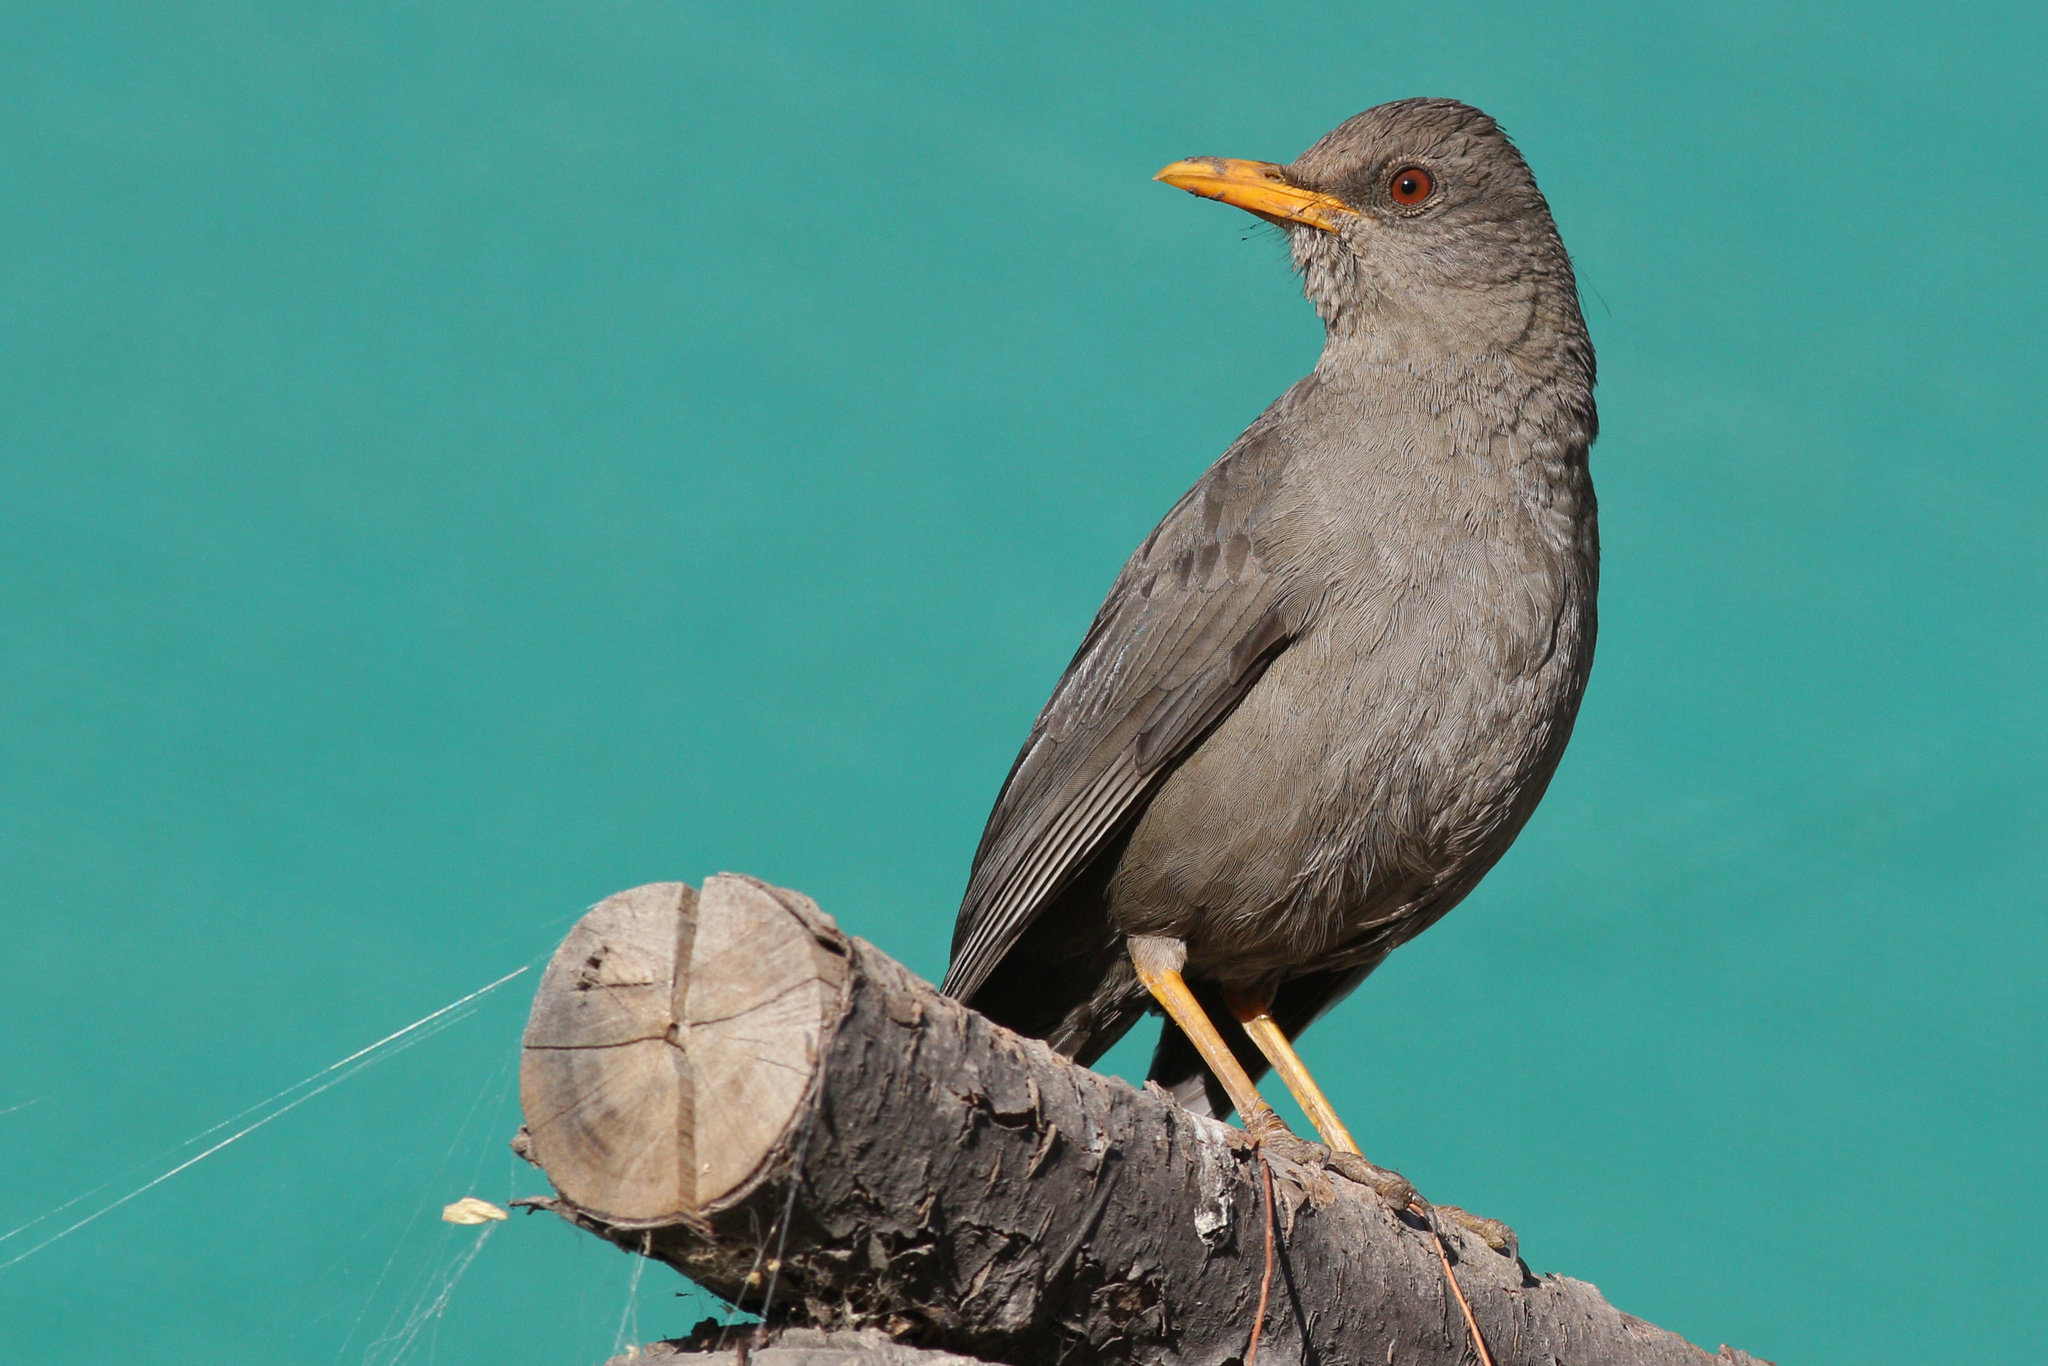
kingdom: Animalia
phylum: Chordata
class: Aves
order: Passeriformes
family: Turdidae
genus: Turdus
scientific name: Turdus chiguanco
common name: Chiguanco thrush
